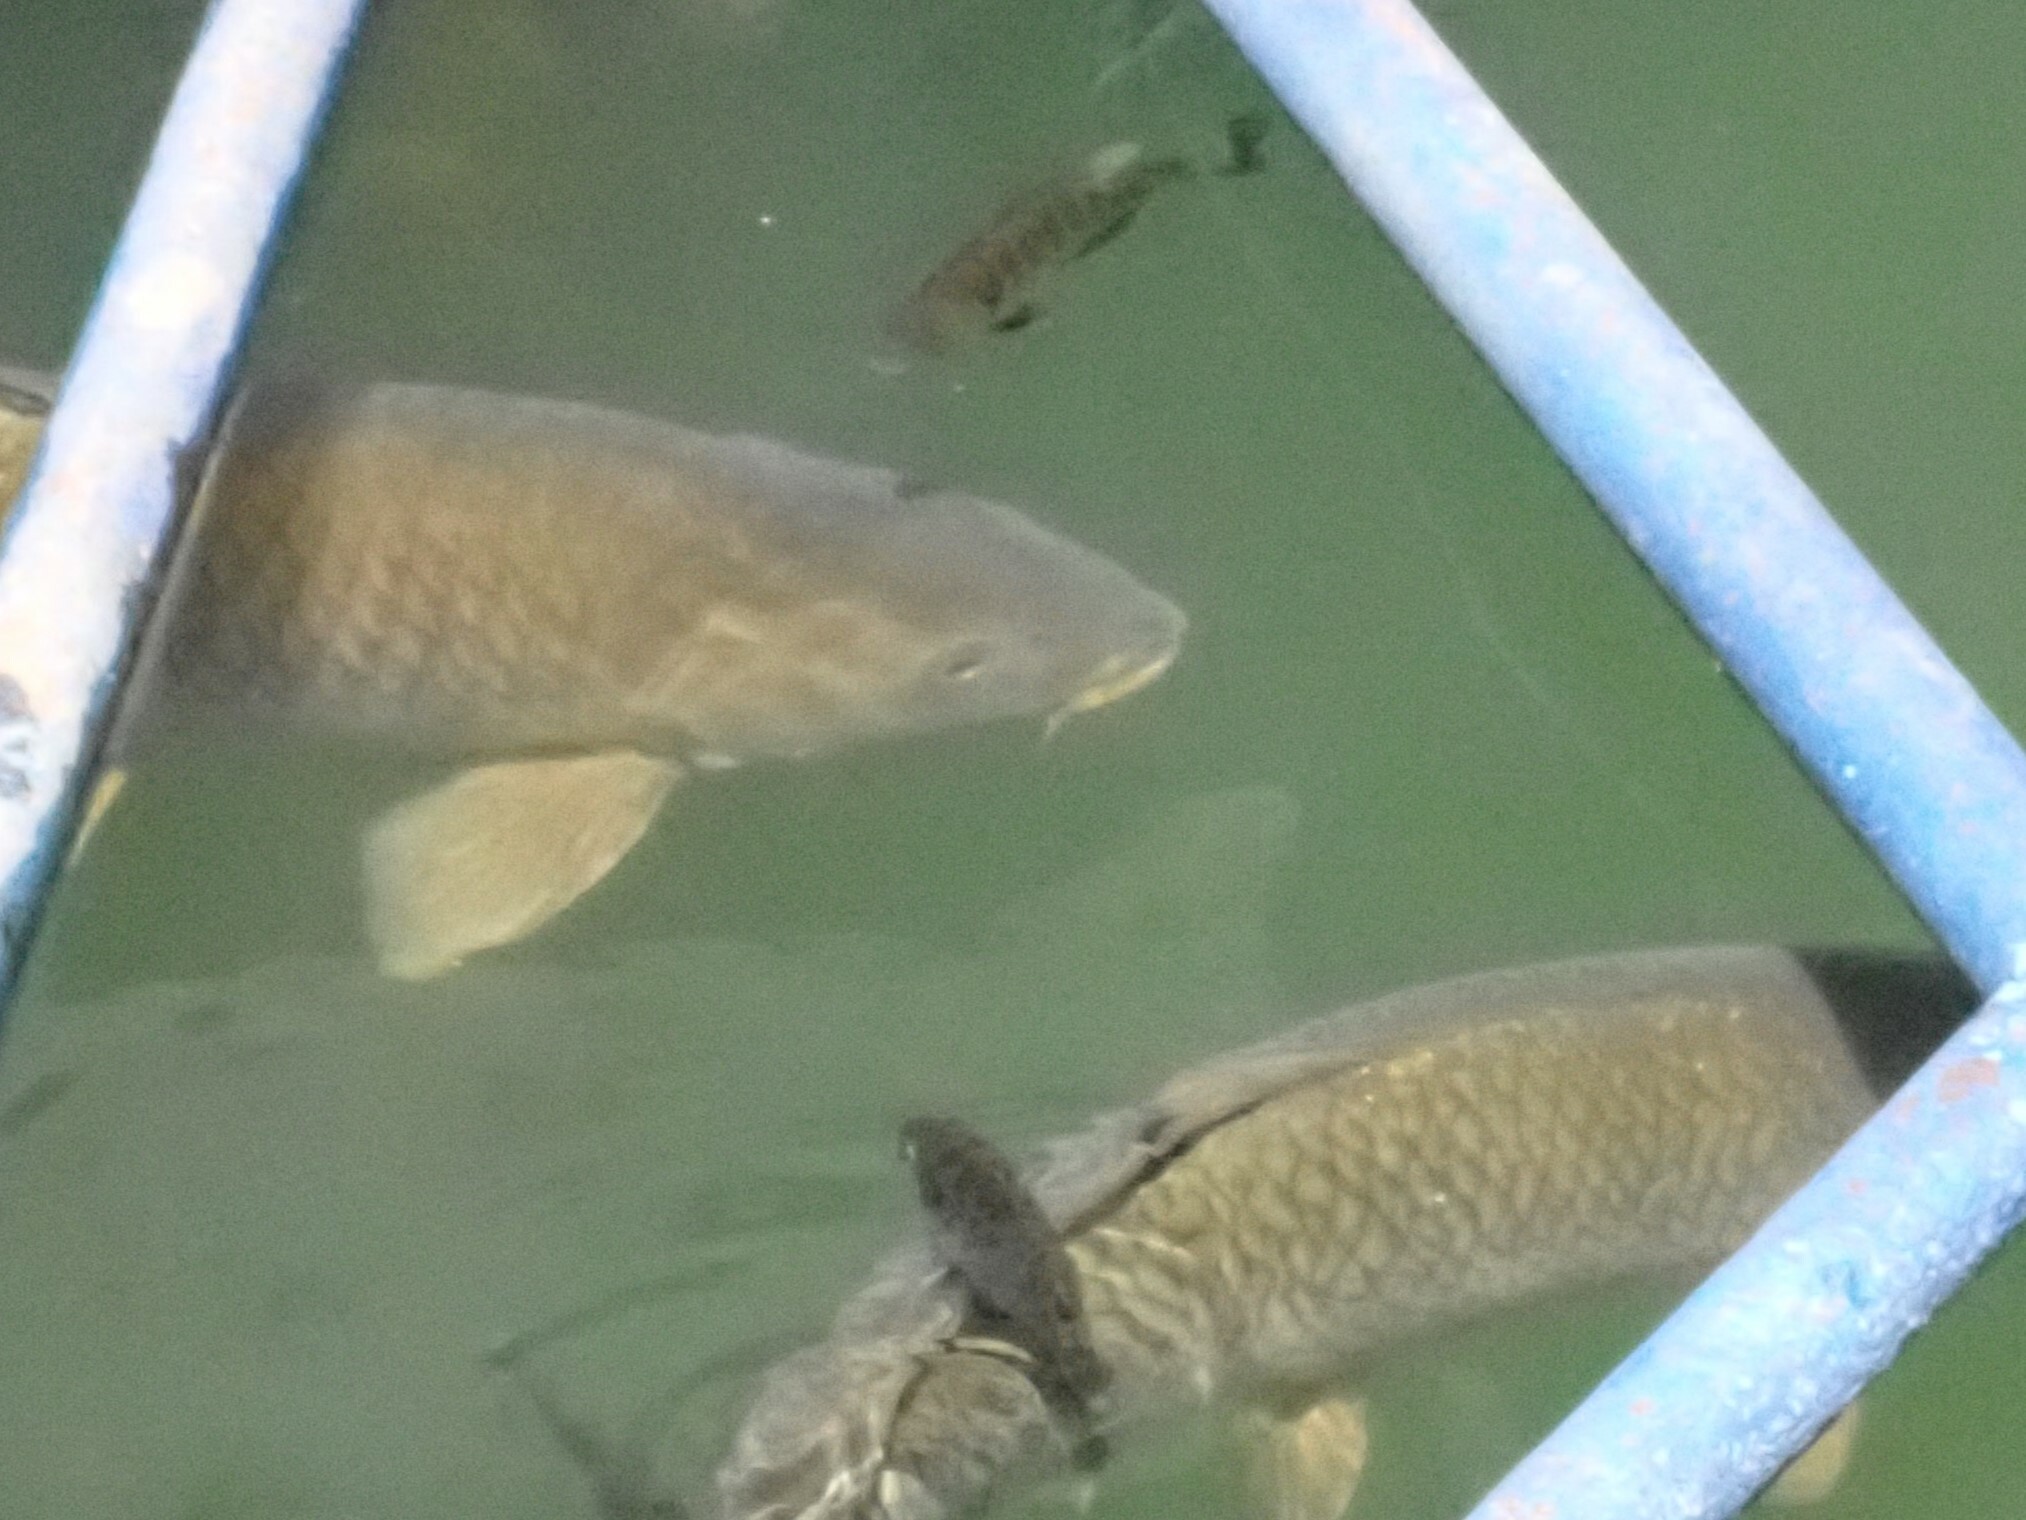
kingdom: Animalia
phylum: Chordata
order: Cypriniformes
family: Cyprinidae
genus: Cyprinus
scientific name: Cyprinus carpio
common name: Common carp
